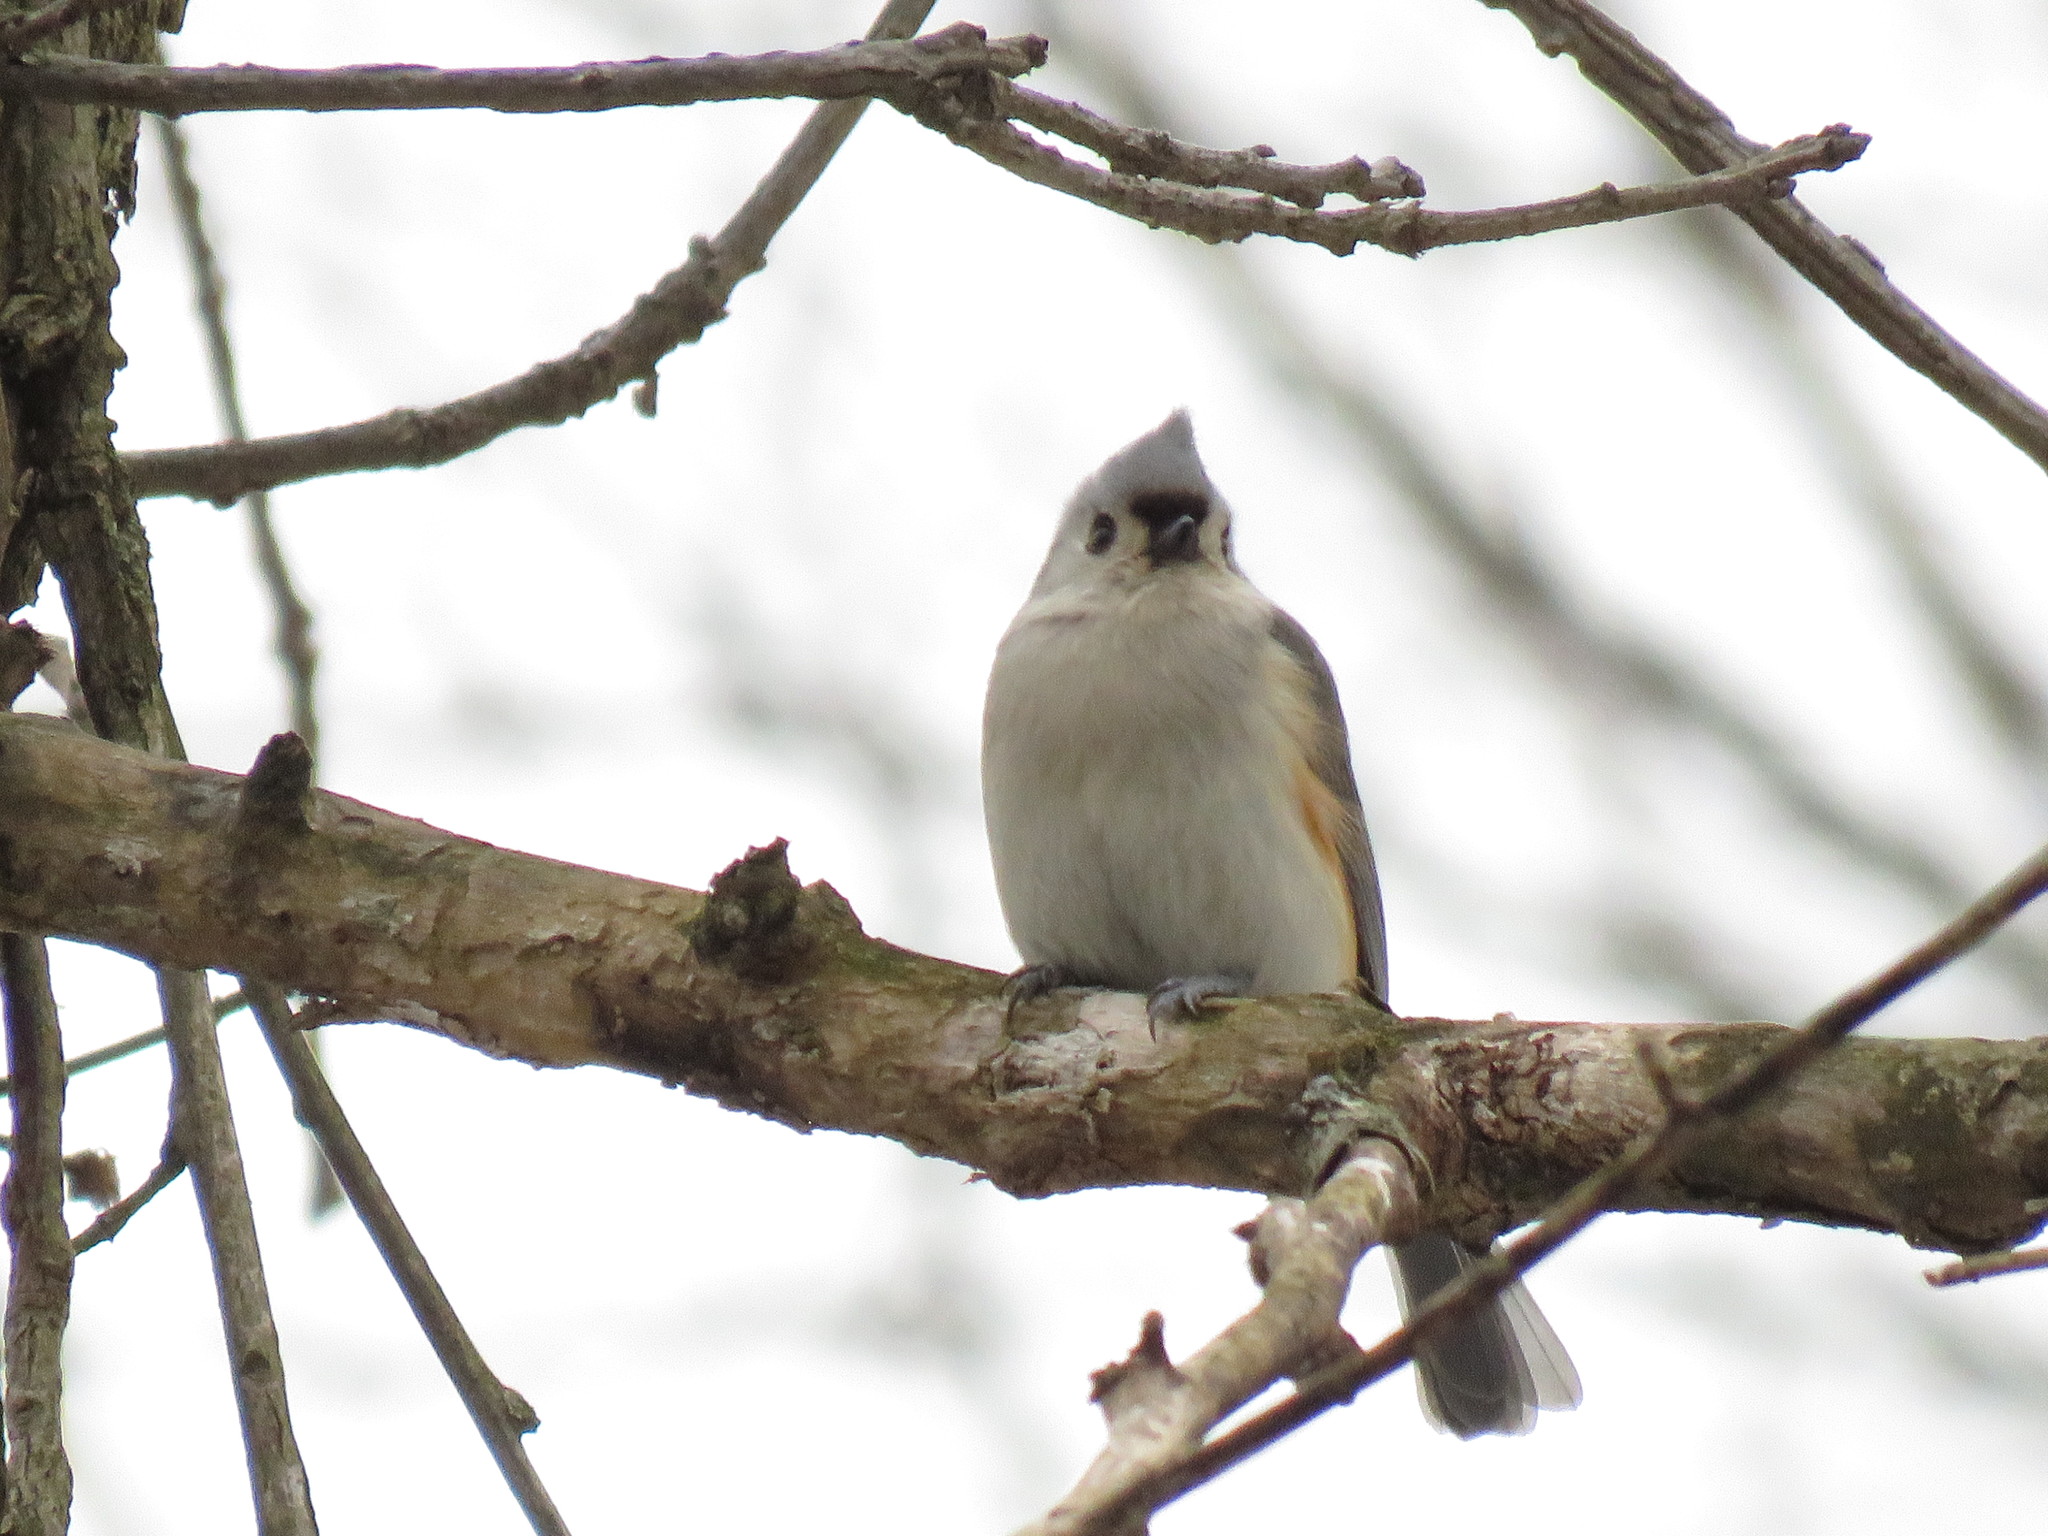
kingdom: Animalia
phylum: Chordata
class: Aves
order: Passeriformes
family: Paridae
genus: Baeolophus
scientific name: Baeolophus bicolor
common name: Tufted titmouse
